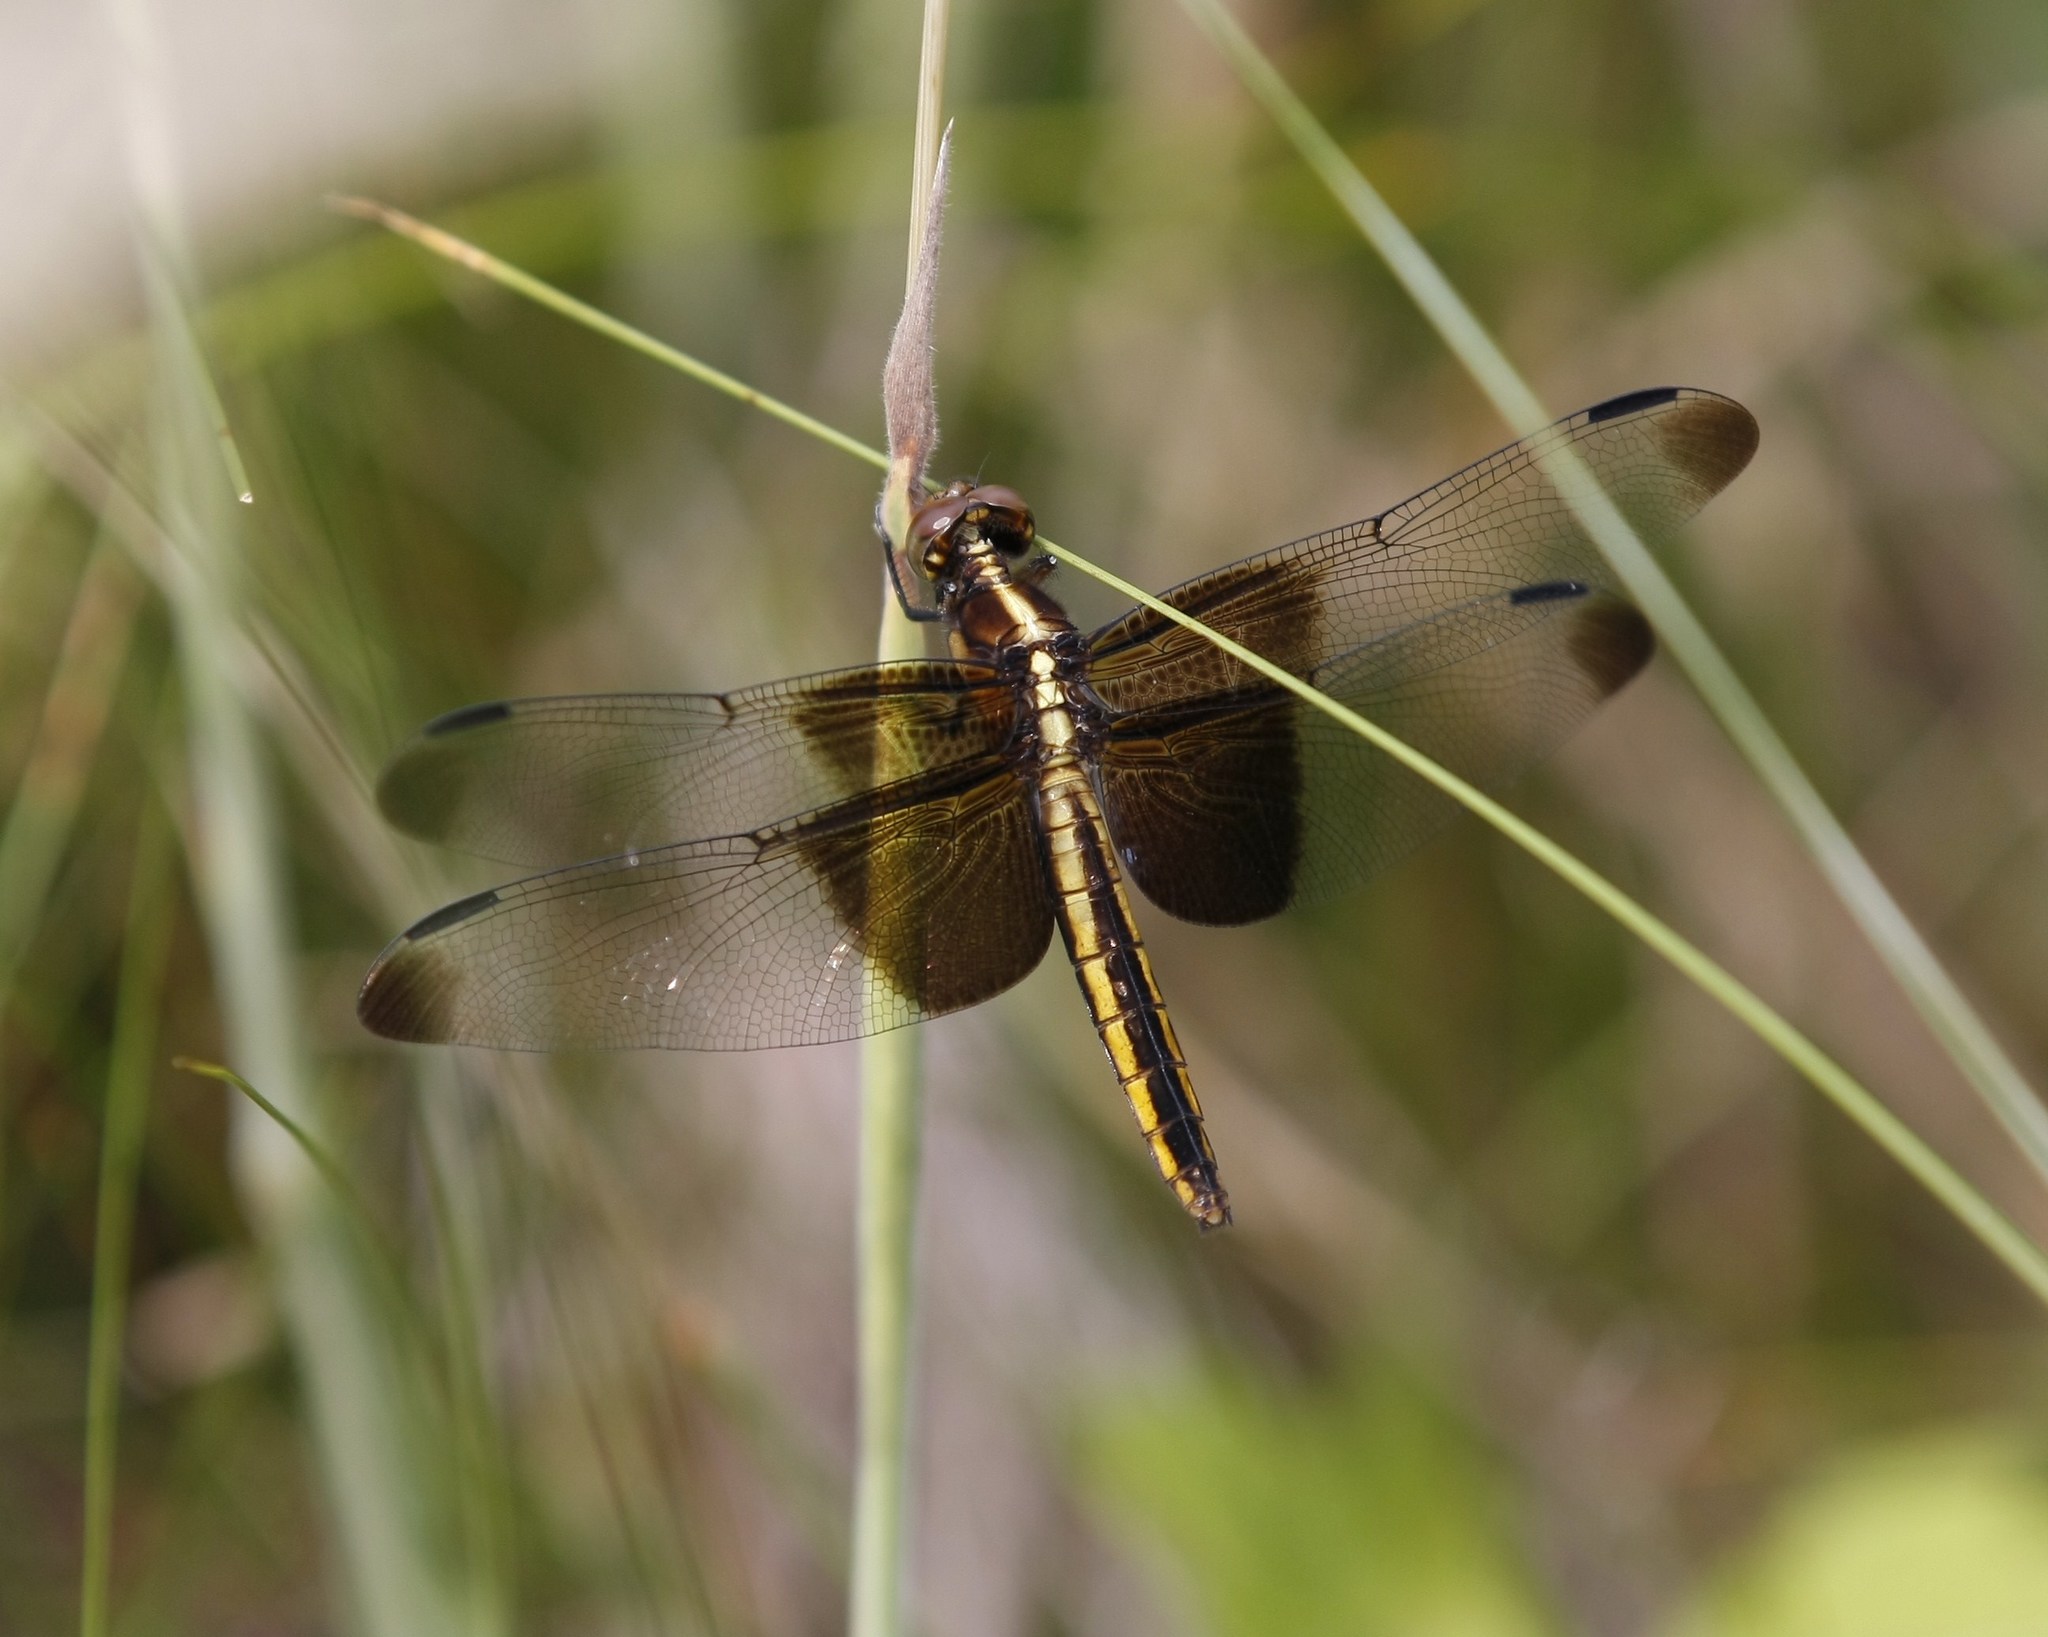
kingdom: Animalia
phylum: Arthropoda
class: Insecta
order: Odonata
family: Libellulidae
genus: Libellula
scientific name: Libellula luctuosa
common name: Widow skimmer
